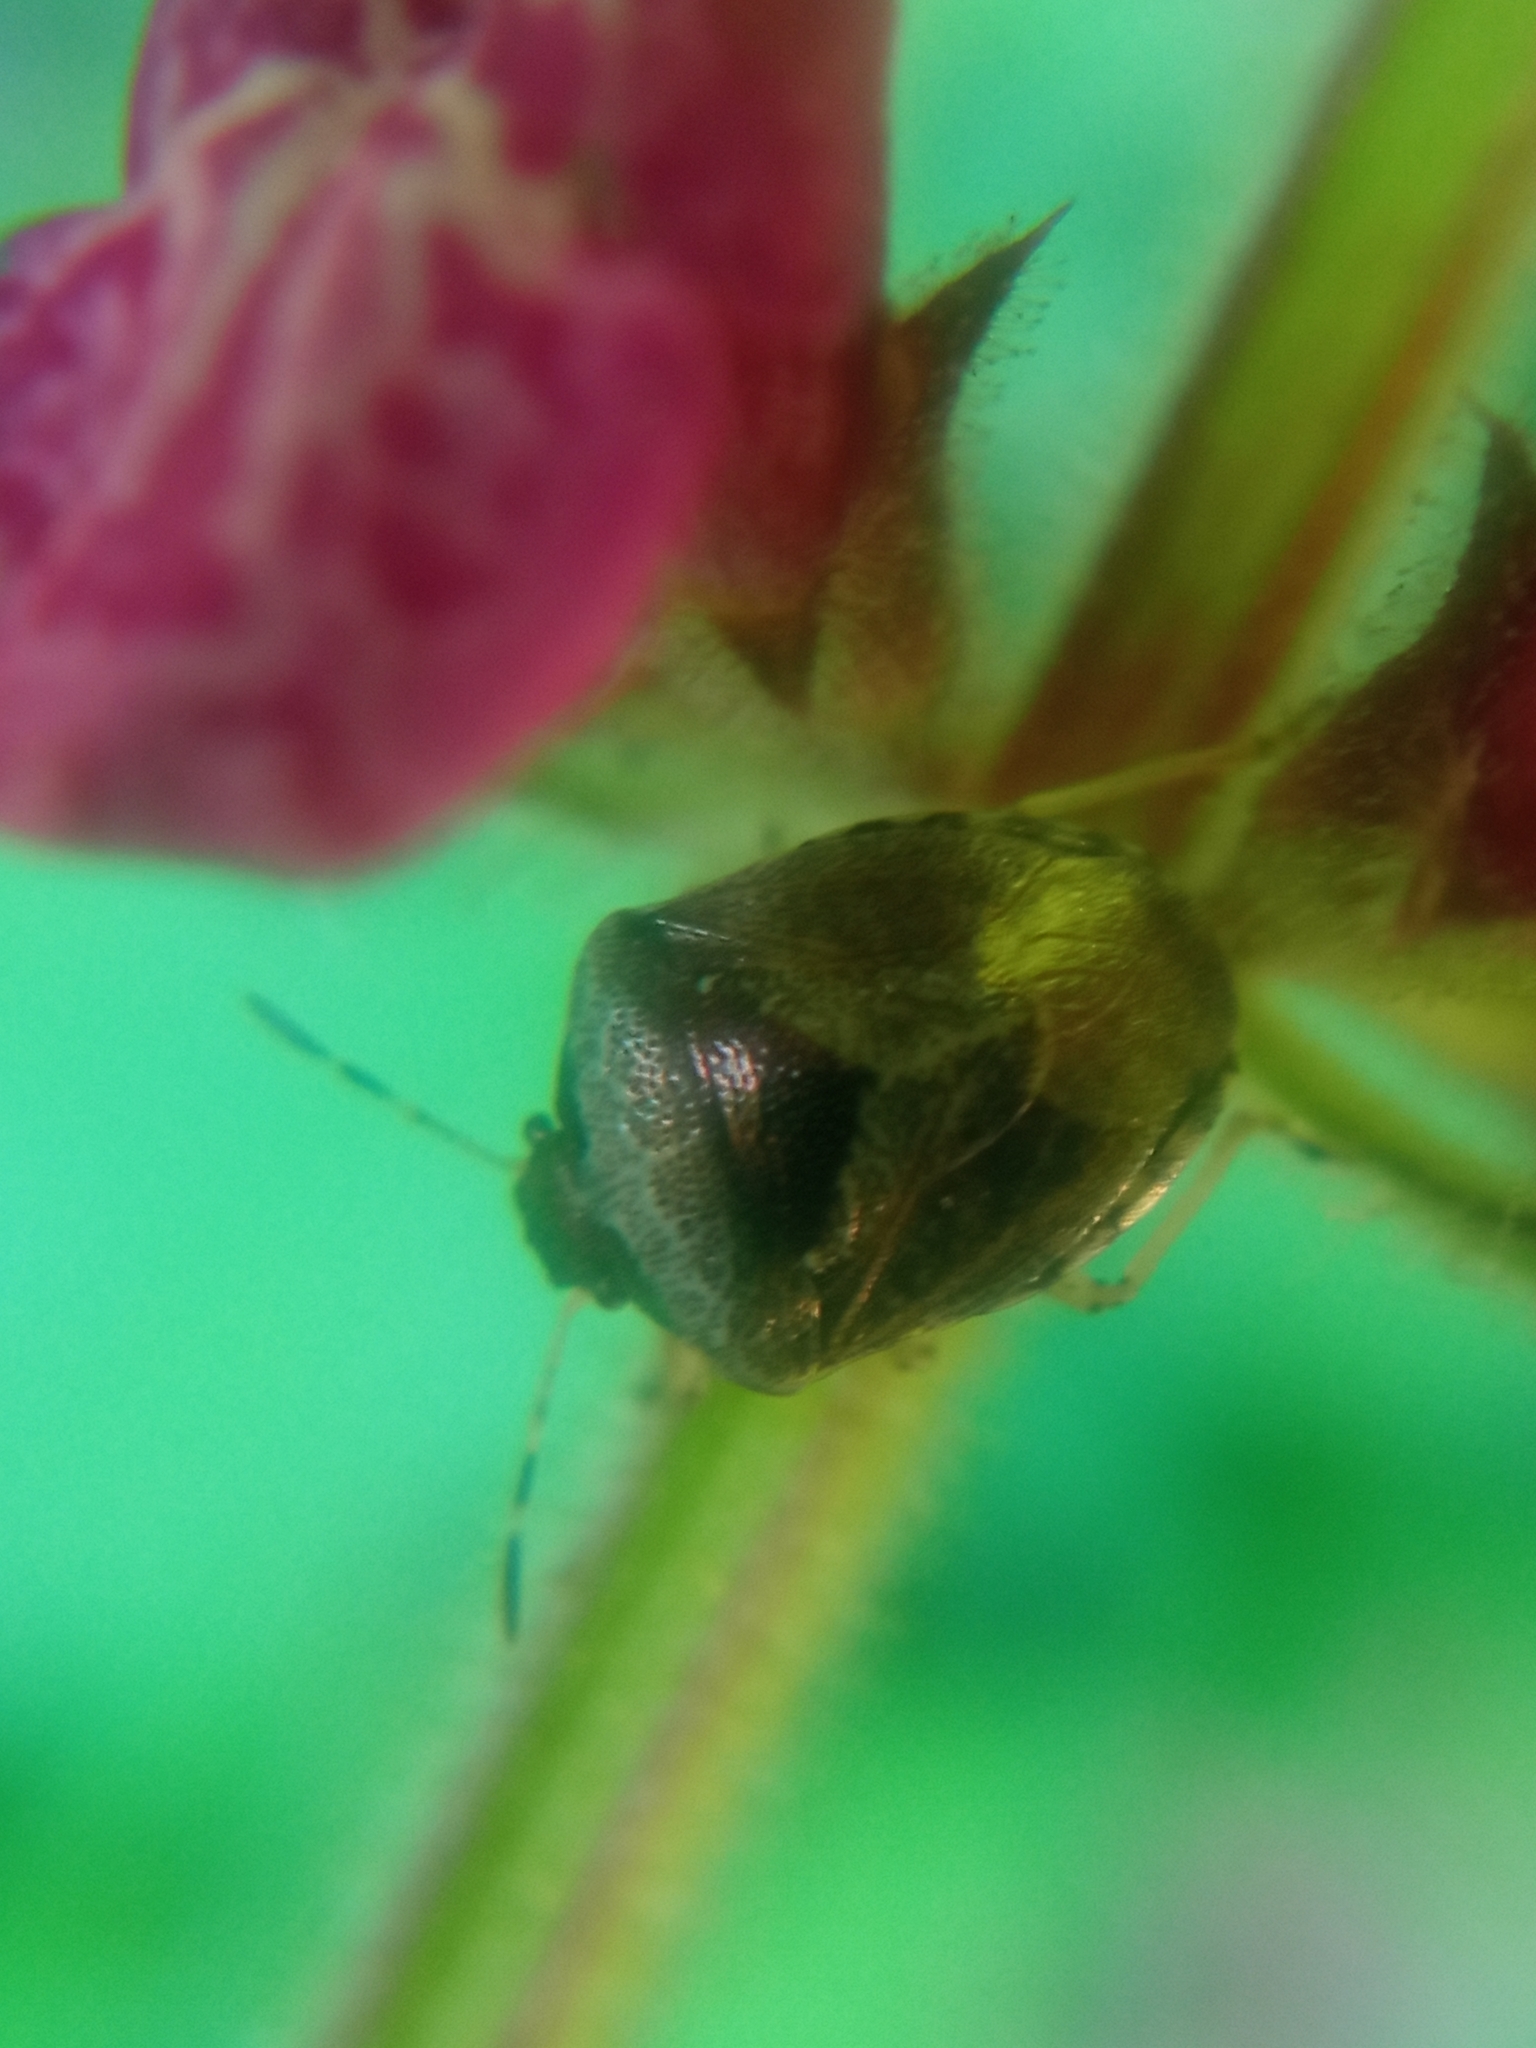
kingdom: Animalia
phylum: Arthropoda
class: Insecta
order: Hemiptera
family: Pentatomidae
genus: Eysarcoris
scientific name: Eysarcoris venustissimus
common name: Woundwort shieldbug
